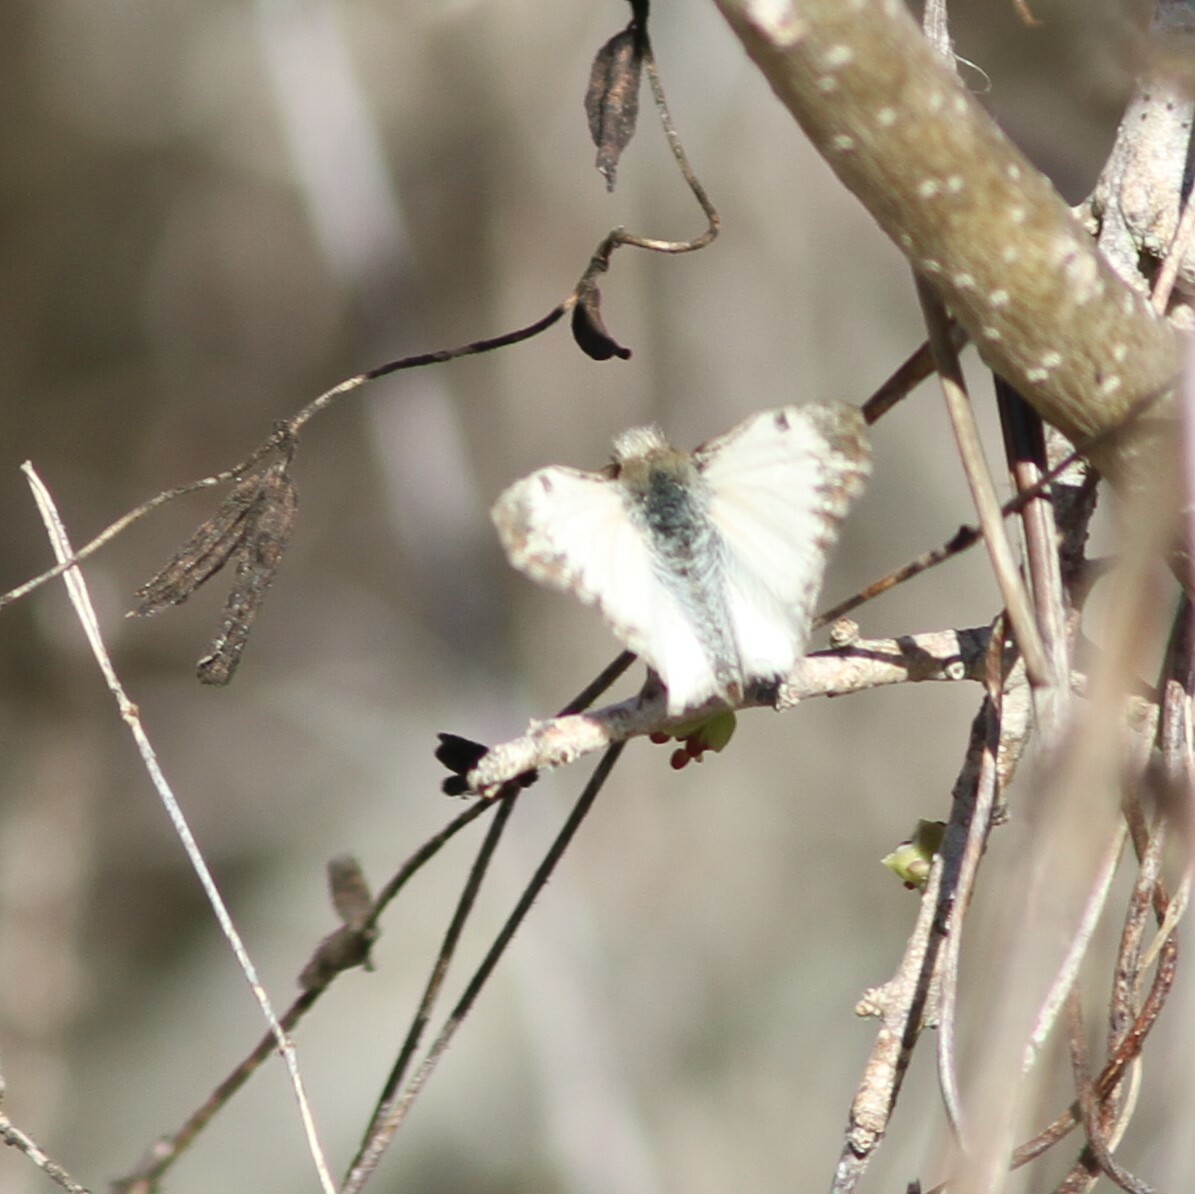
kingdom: Animalia
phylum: Arthropoda
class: Insecta
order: Lepidoptera
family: Hesperiidae
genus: Heliopetes
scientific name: Heliopetes macaira
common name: Turk's-cap white-skipper
